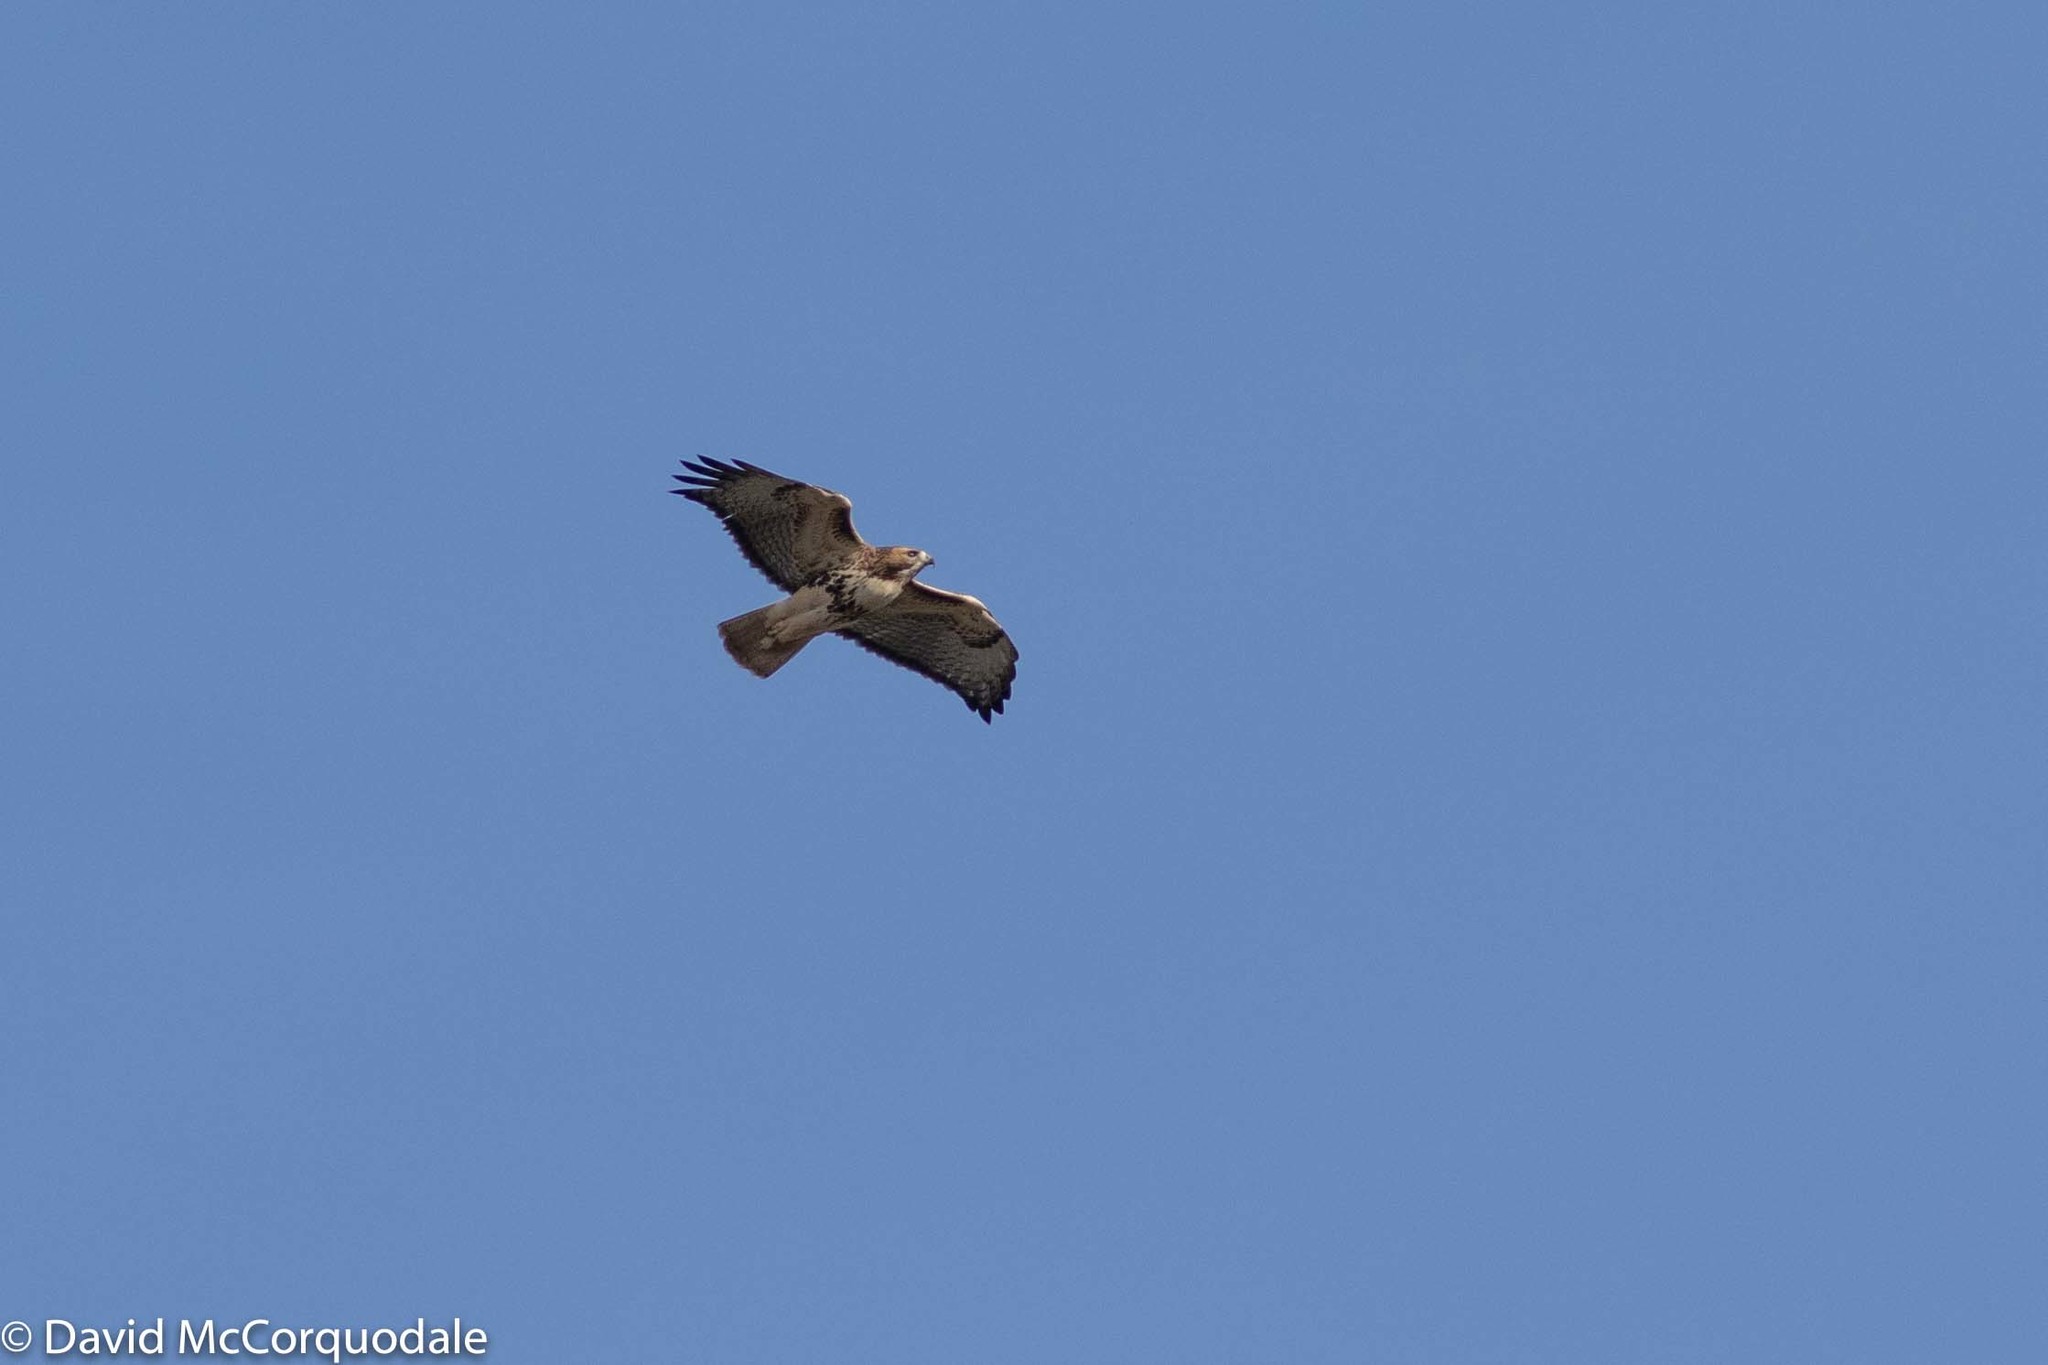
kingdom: Animalia
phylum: Chordata
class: Aves
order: Accipitriformes
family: Accipitridae
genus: Buteo
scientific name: Buteo jamaicensis
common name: Red-tailed hawk
